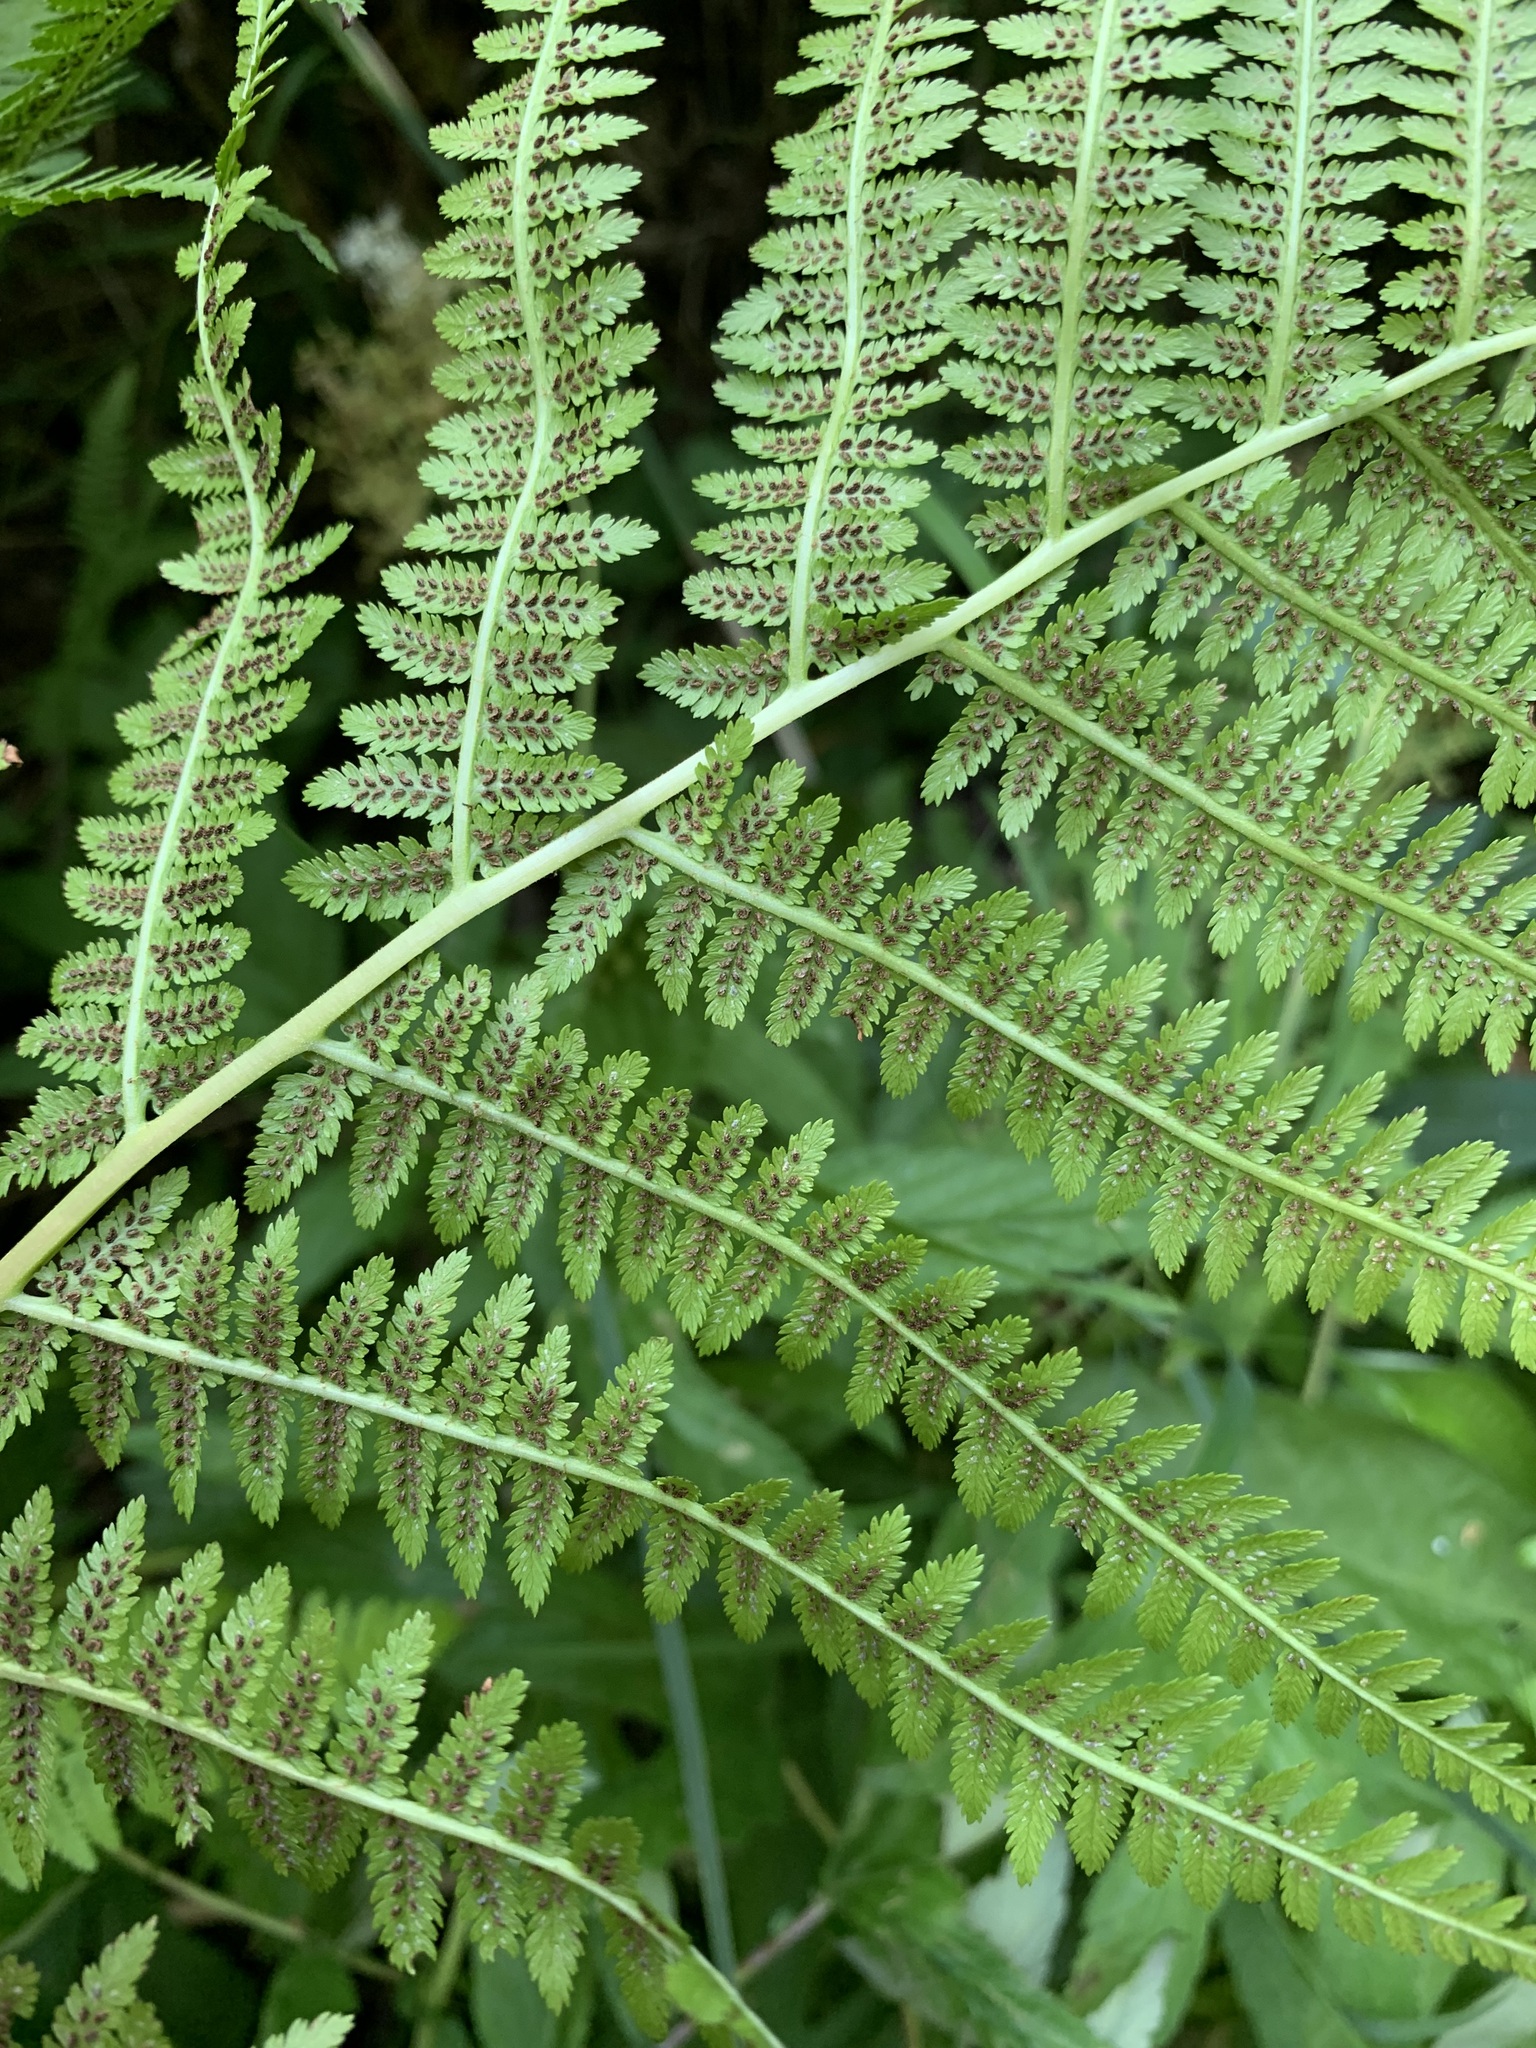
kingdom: Plantae
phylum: Tracheophyta
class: Polypodiopsida
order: Polypodiales
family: Athyriaceae
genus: Athyrium
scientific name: Athyrium filix-femina
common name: Lady fern
